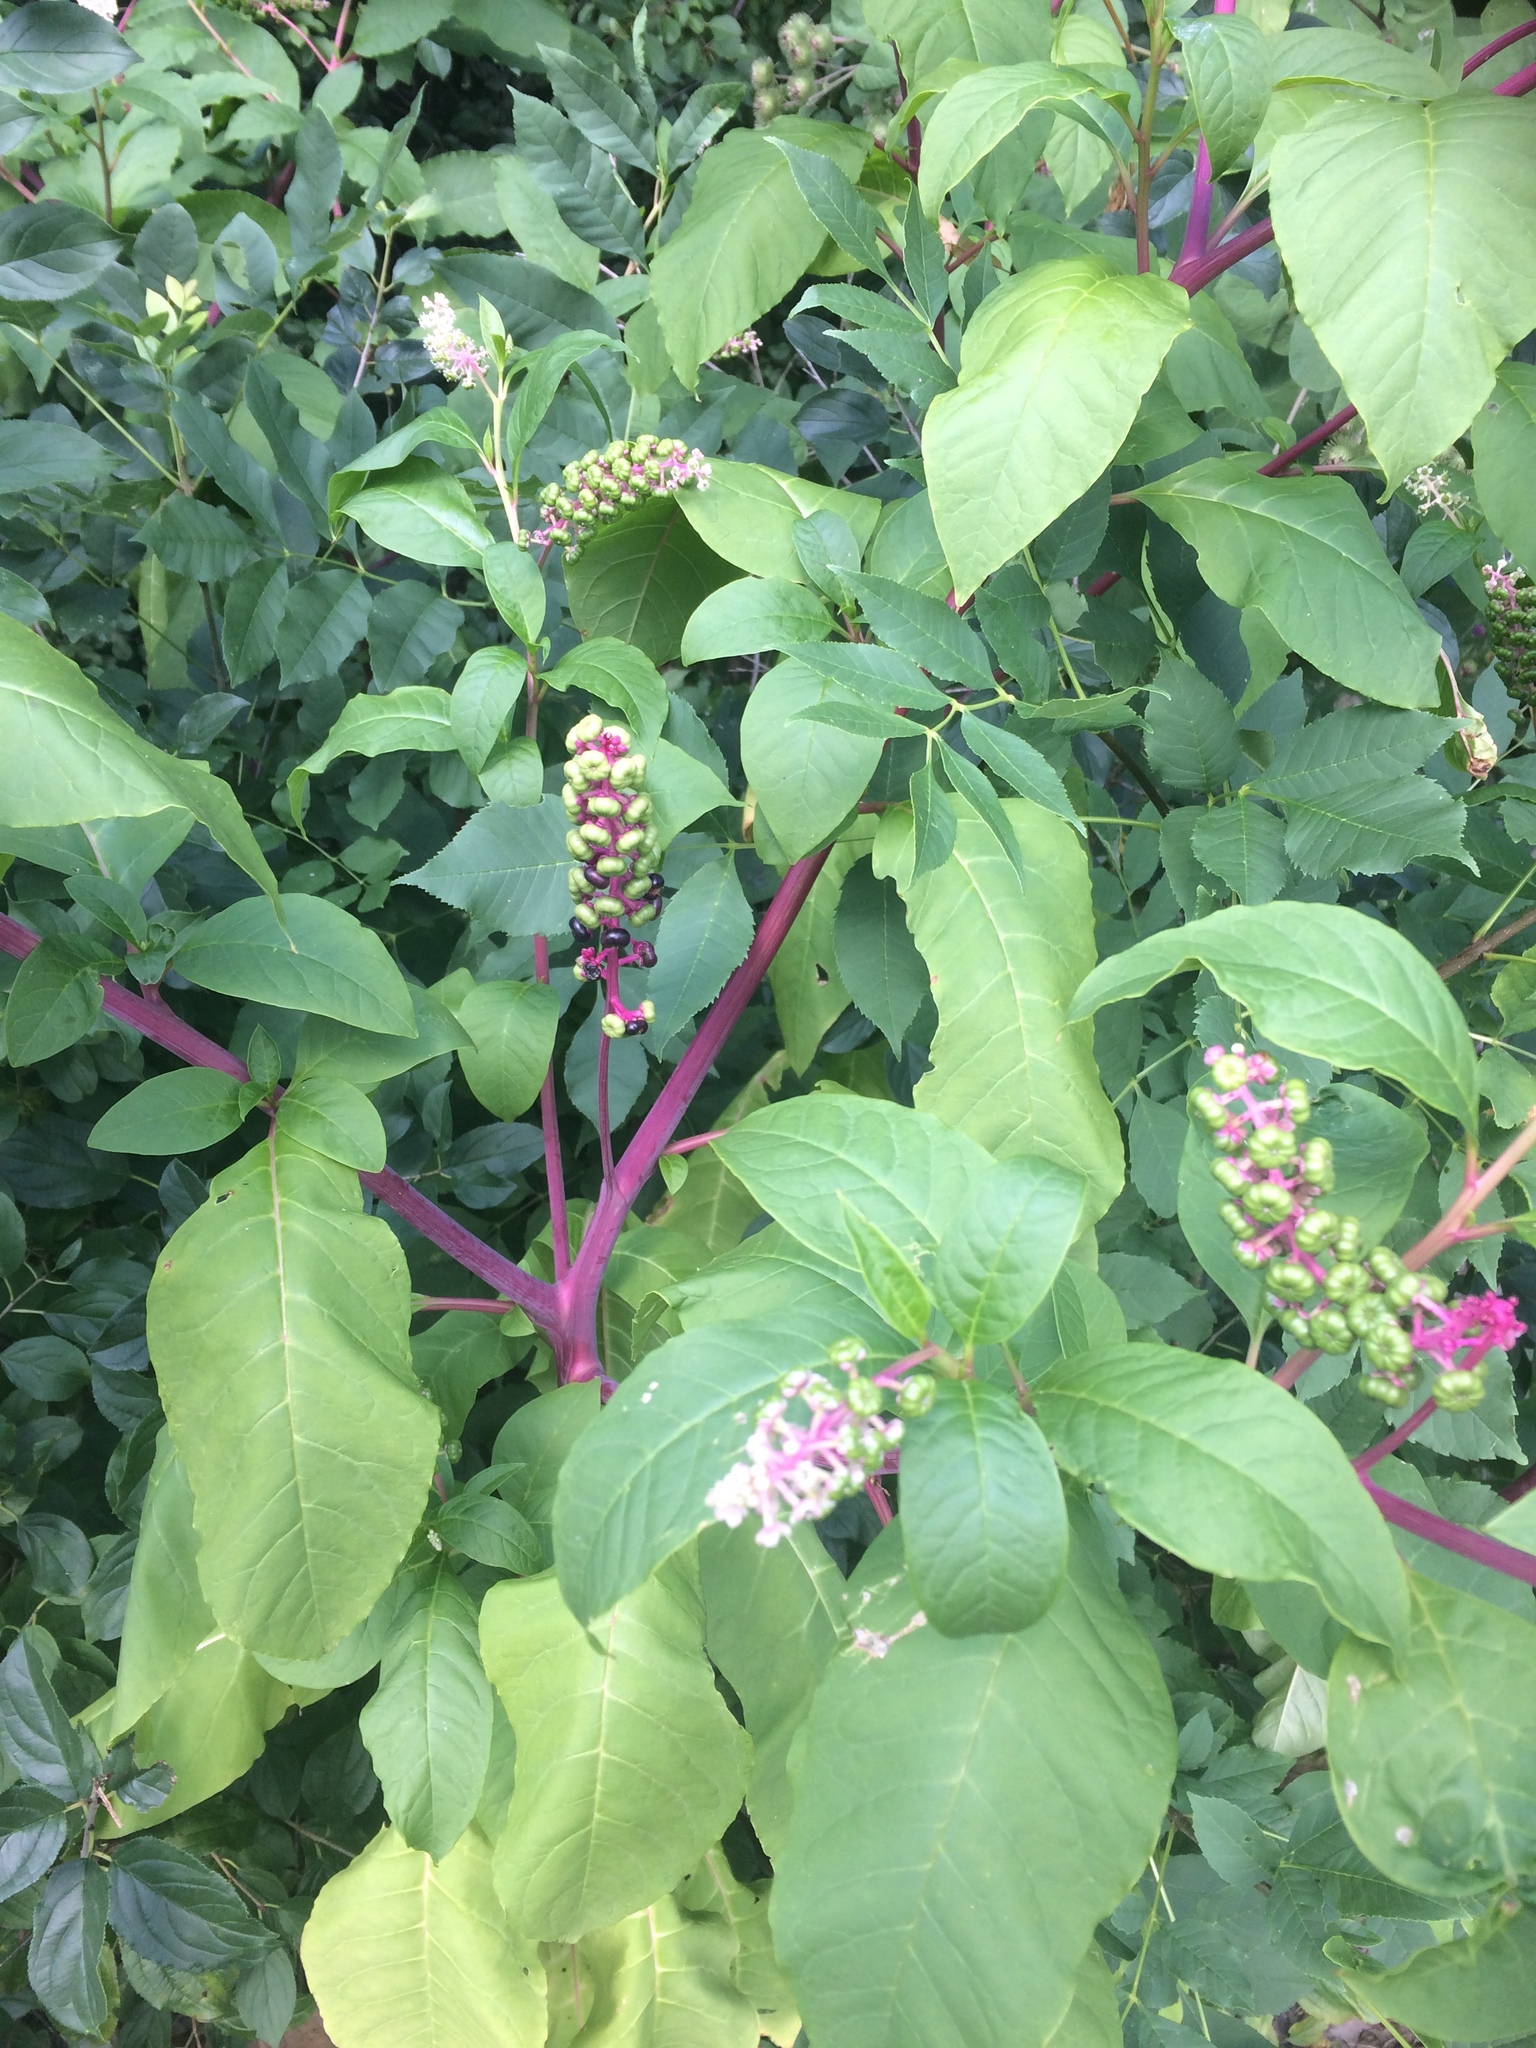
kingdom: Plantae
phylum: Tracheophyta
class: Magnoliopsida
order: Caryophyllales
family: Phytolaccaceae
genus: Phytolacca
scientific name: Phytolacca americana
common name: American pokeweed
